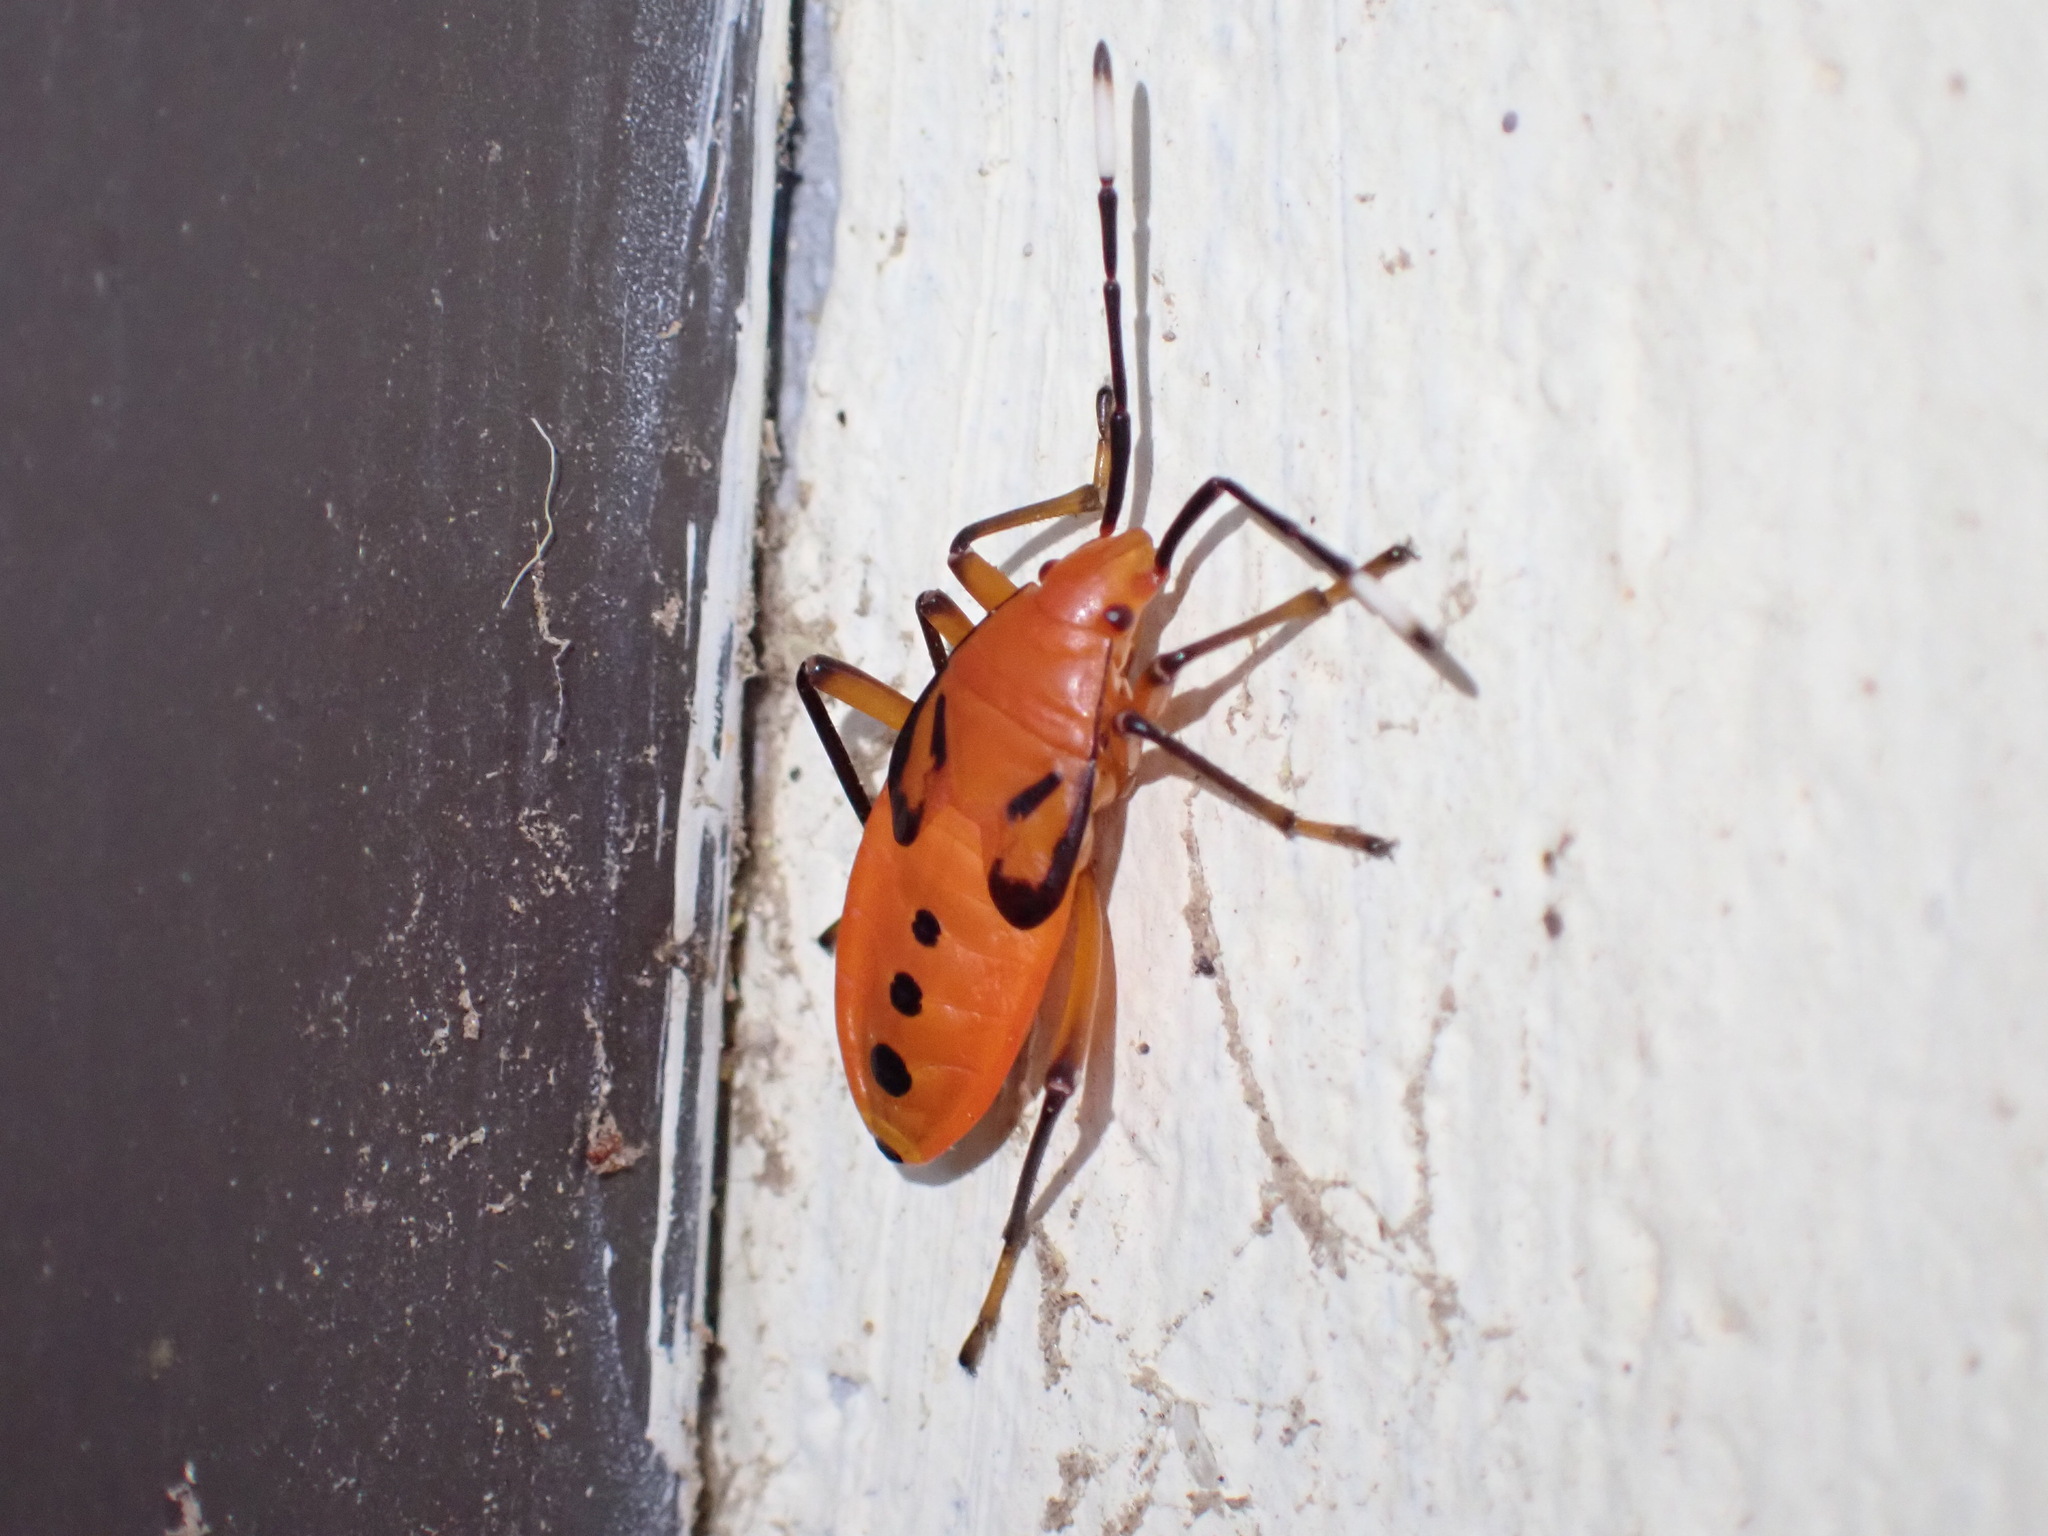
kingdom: Animalia
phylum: Arthropoda
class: Insecta
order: Hemiptera
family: Pyrrhocoridae
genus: Probergrothius
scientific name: Probergrothius angolensis
